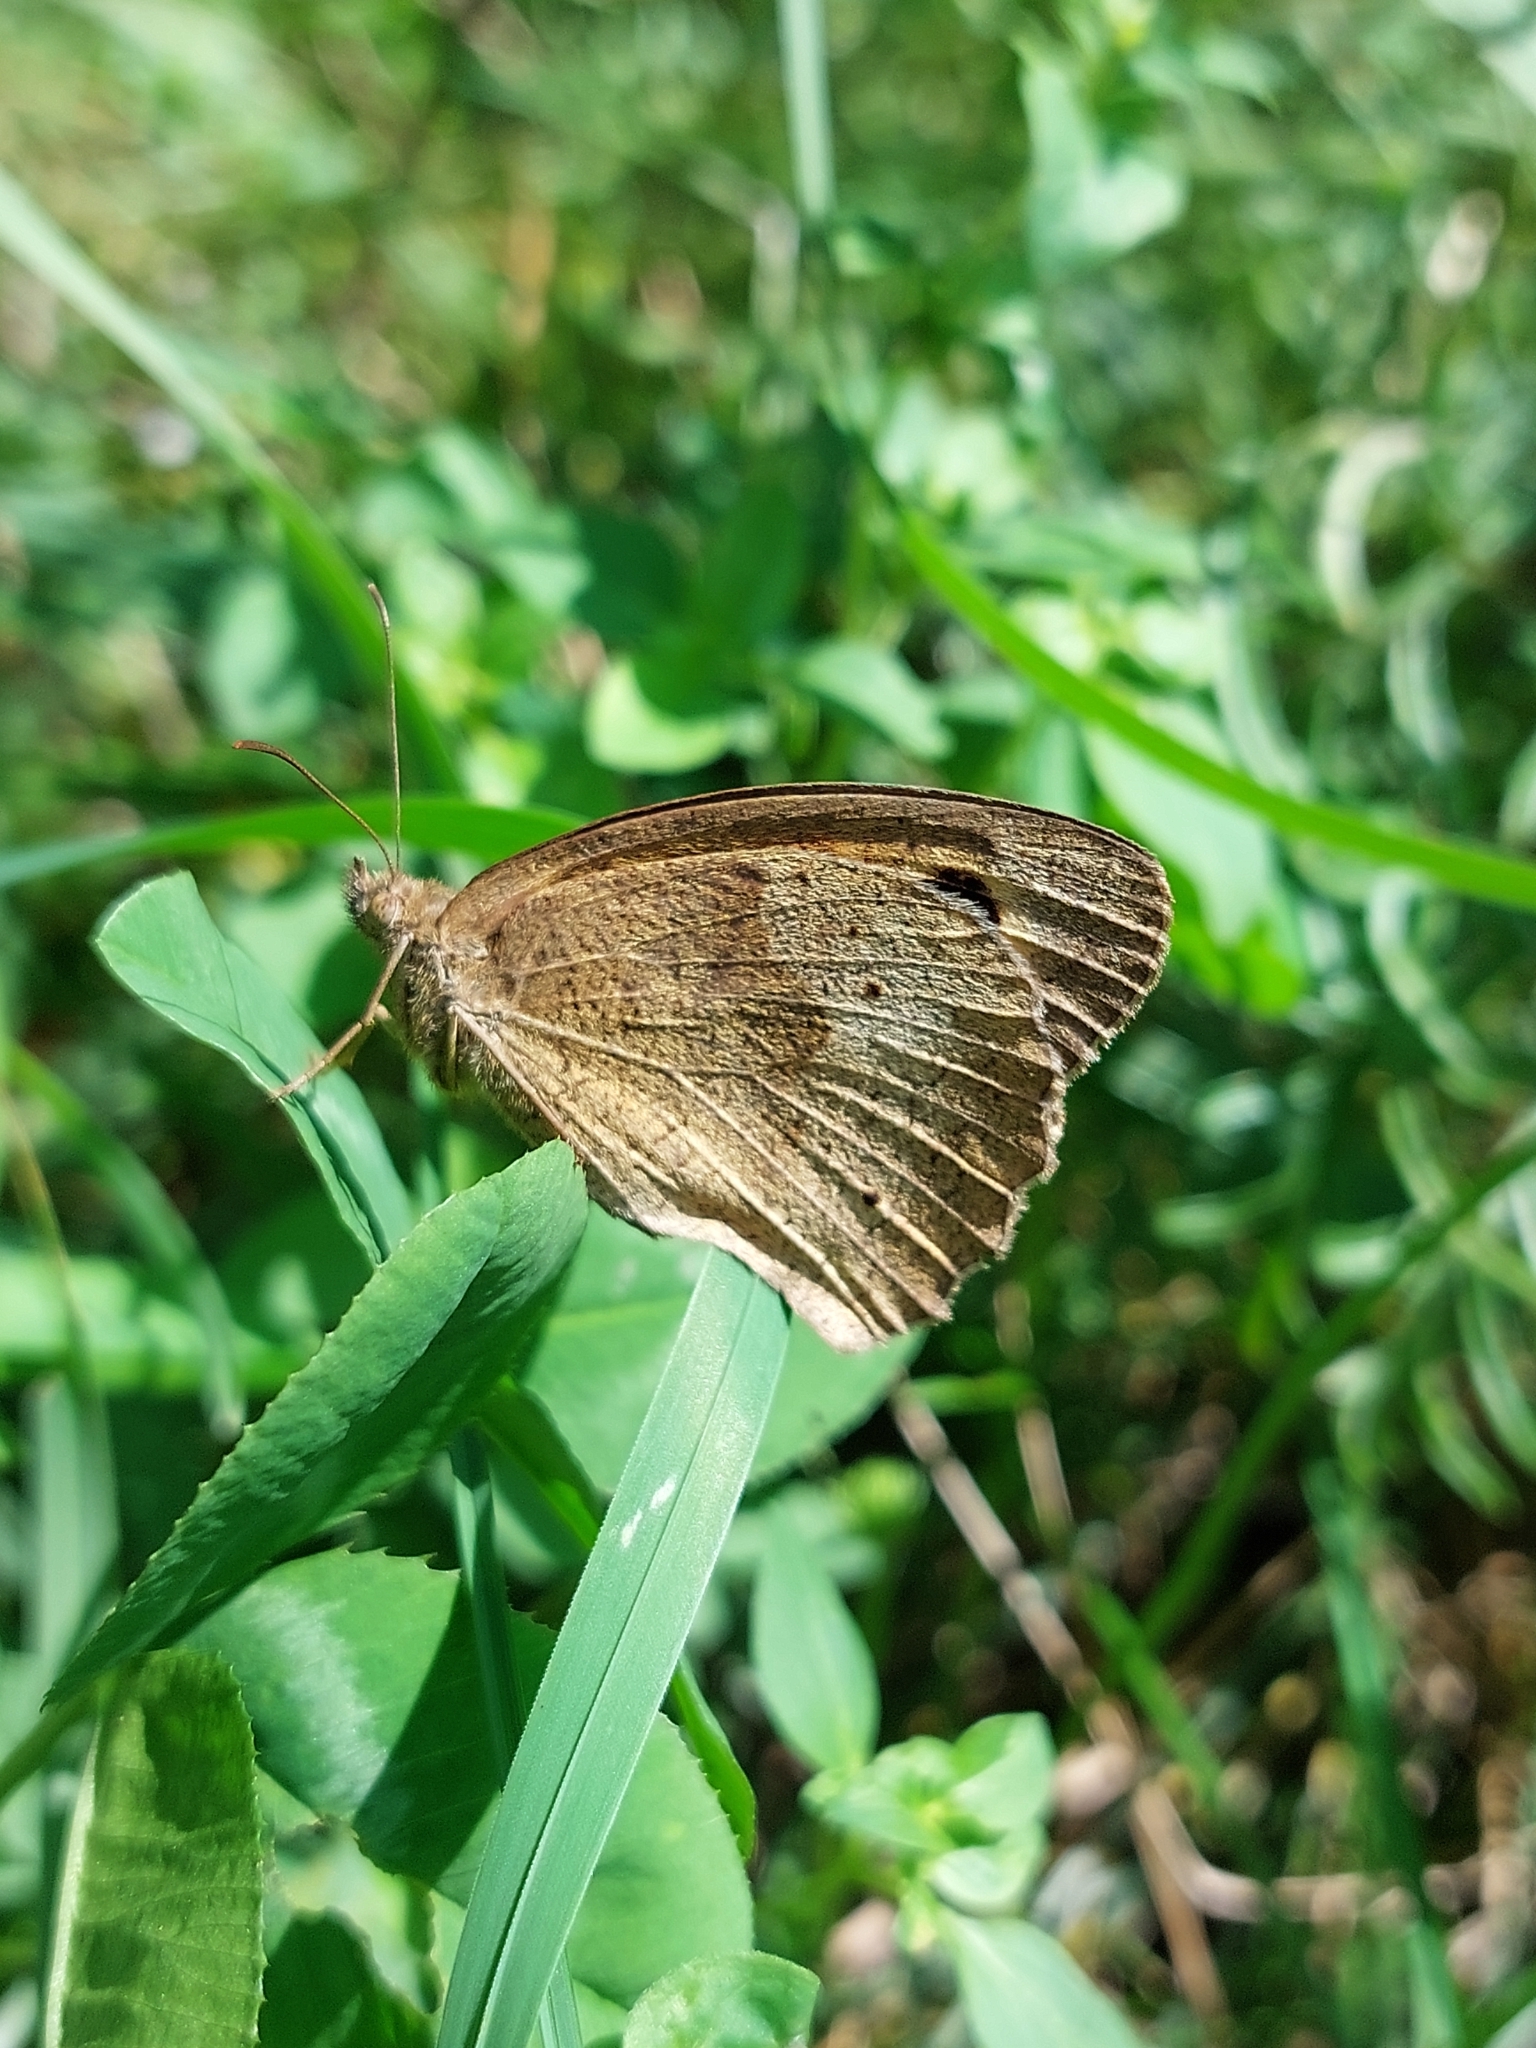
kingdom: Animalia
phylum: Arthropoda
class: Insecta
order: Lepidoptera
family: Nymphalidae
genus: Maniola
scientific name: Maniola jurtina
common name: Meadow brown
